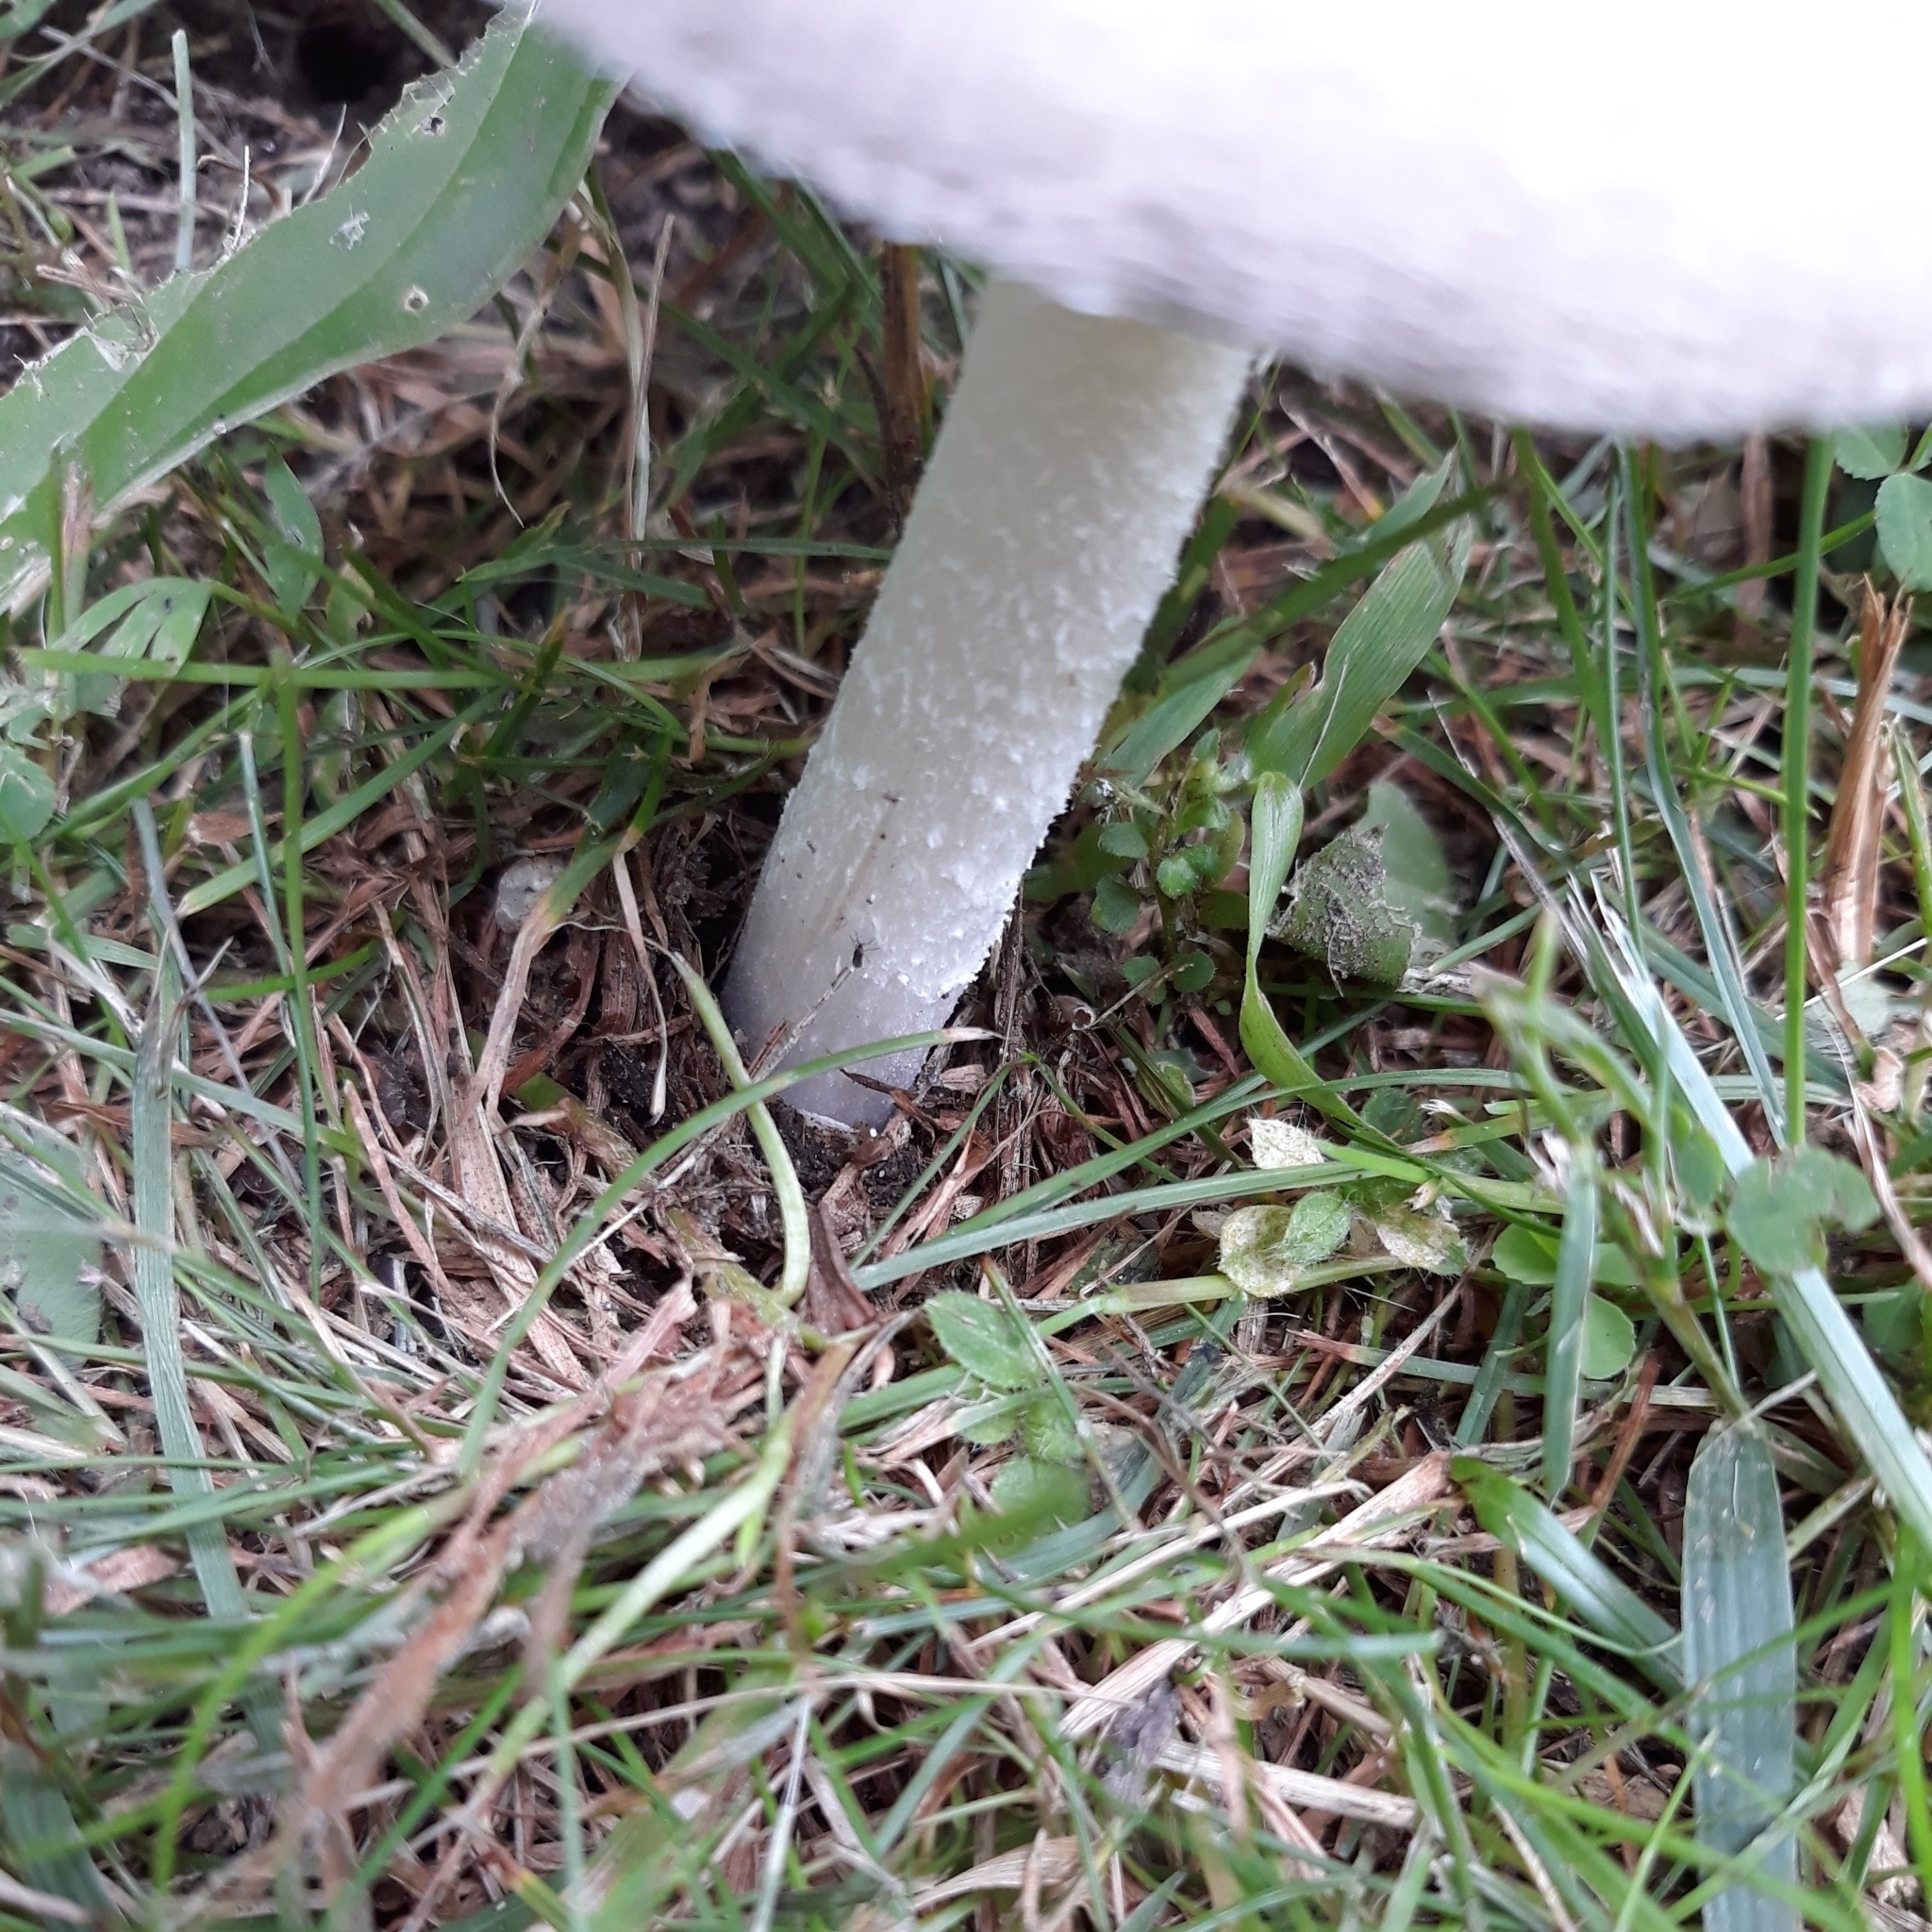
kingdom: Fungi
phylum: Basidiomycota
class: Agaricomycetes
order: Agaricales
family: Amanitaceae
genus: Amanita
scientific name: Amanita
